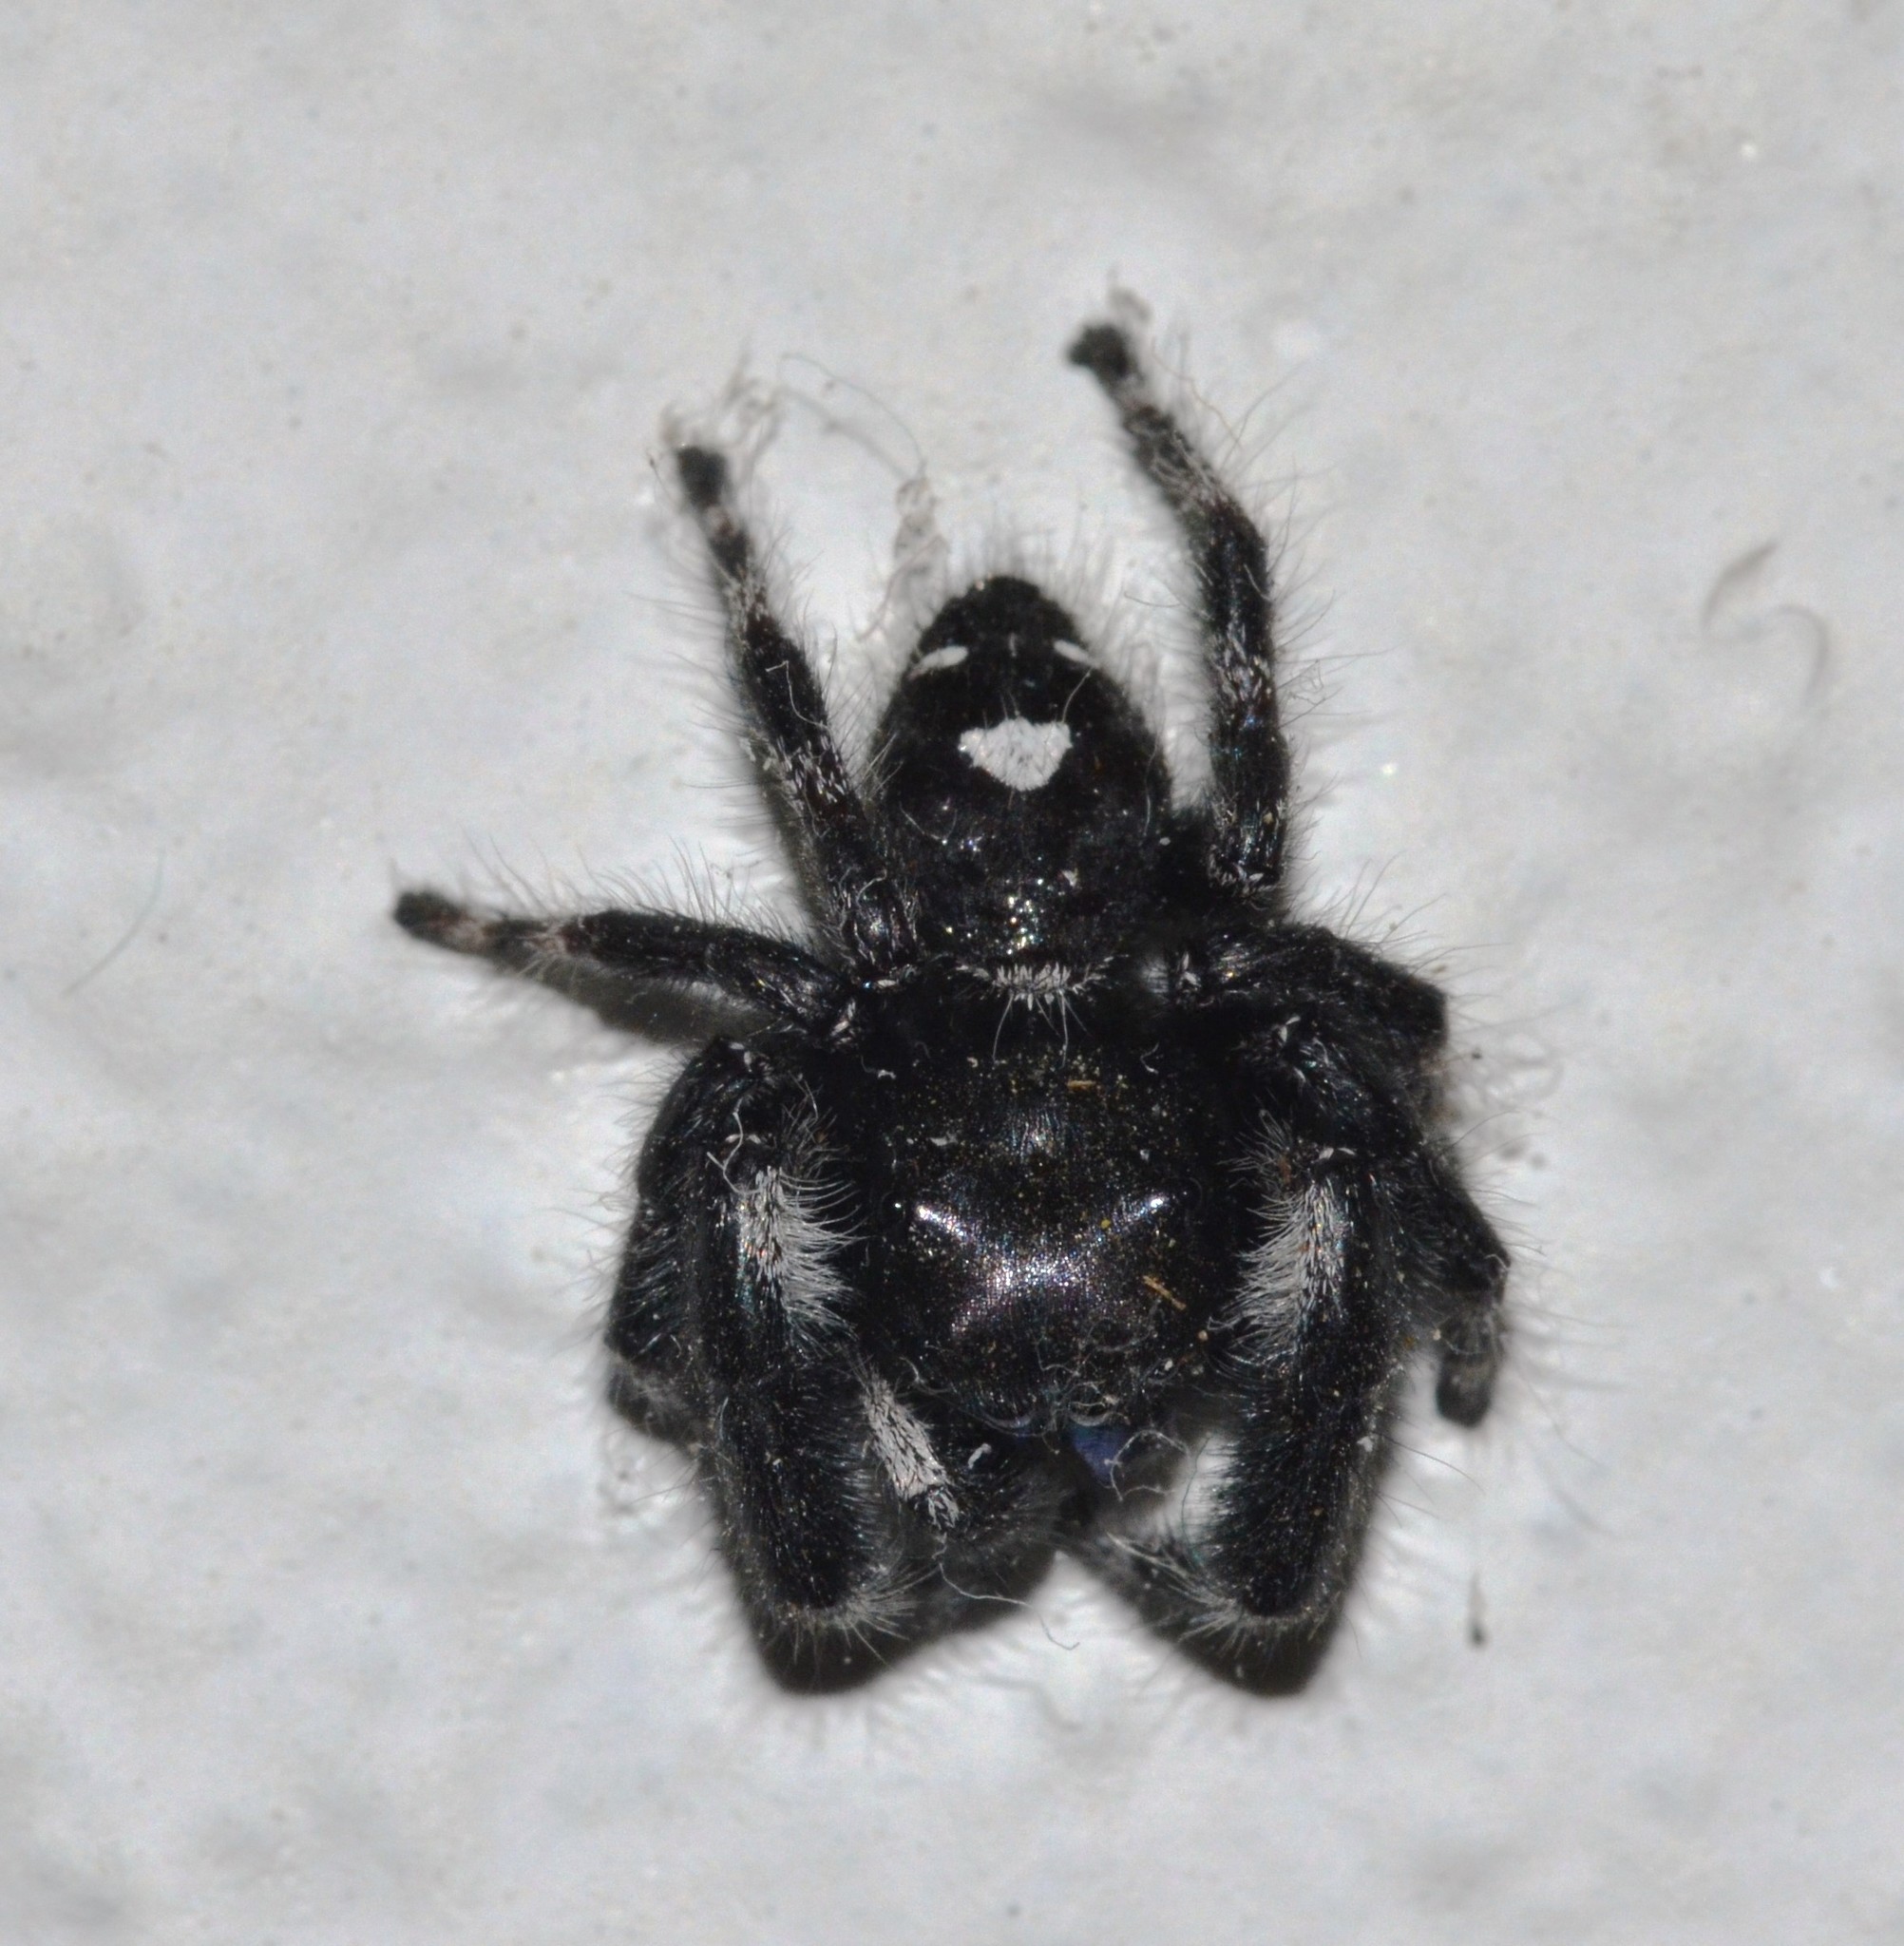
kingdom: Animalia
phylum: Arthropoda
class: Arachnida
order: Araneae
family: Salticidae
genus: Phidippus
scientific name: Phidippus audax
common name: Bold jumper
